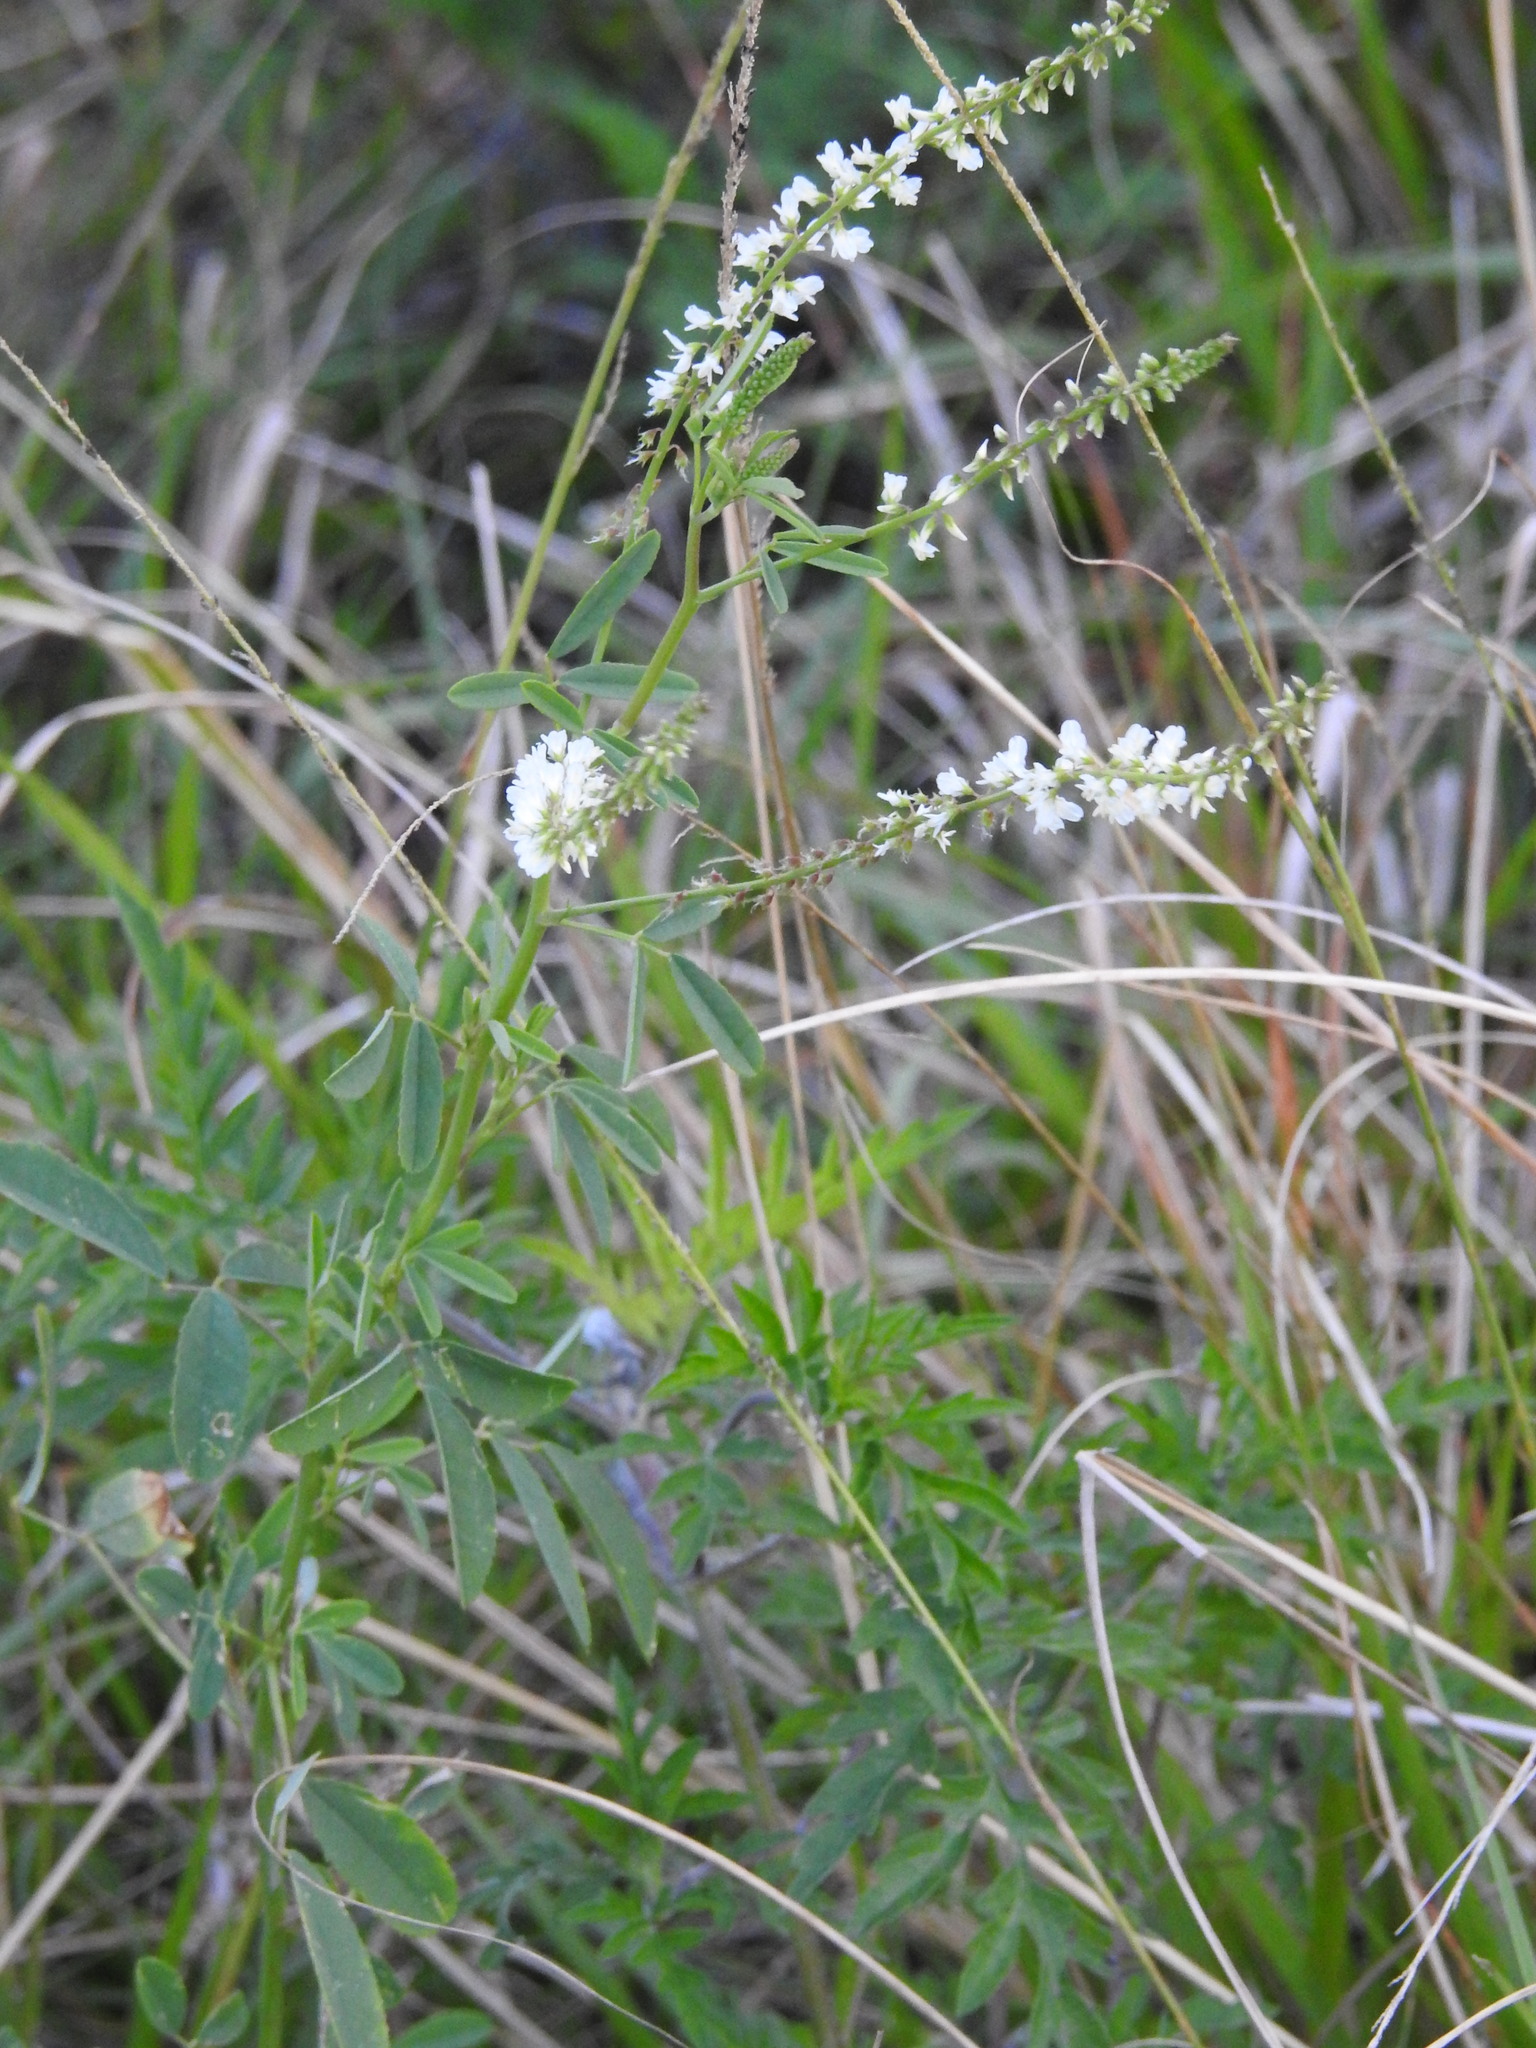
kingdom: Plantae
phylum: Tracheophyta
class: Magnoliopsida
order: Fabales
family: Fabaceae
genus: Melilotus
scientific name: Melilotus albus
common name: White melilot
